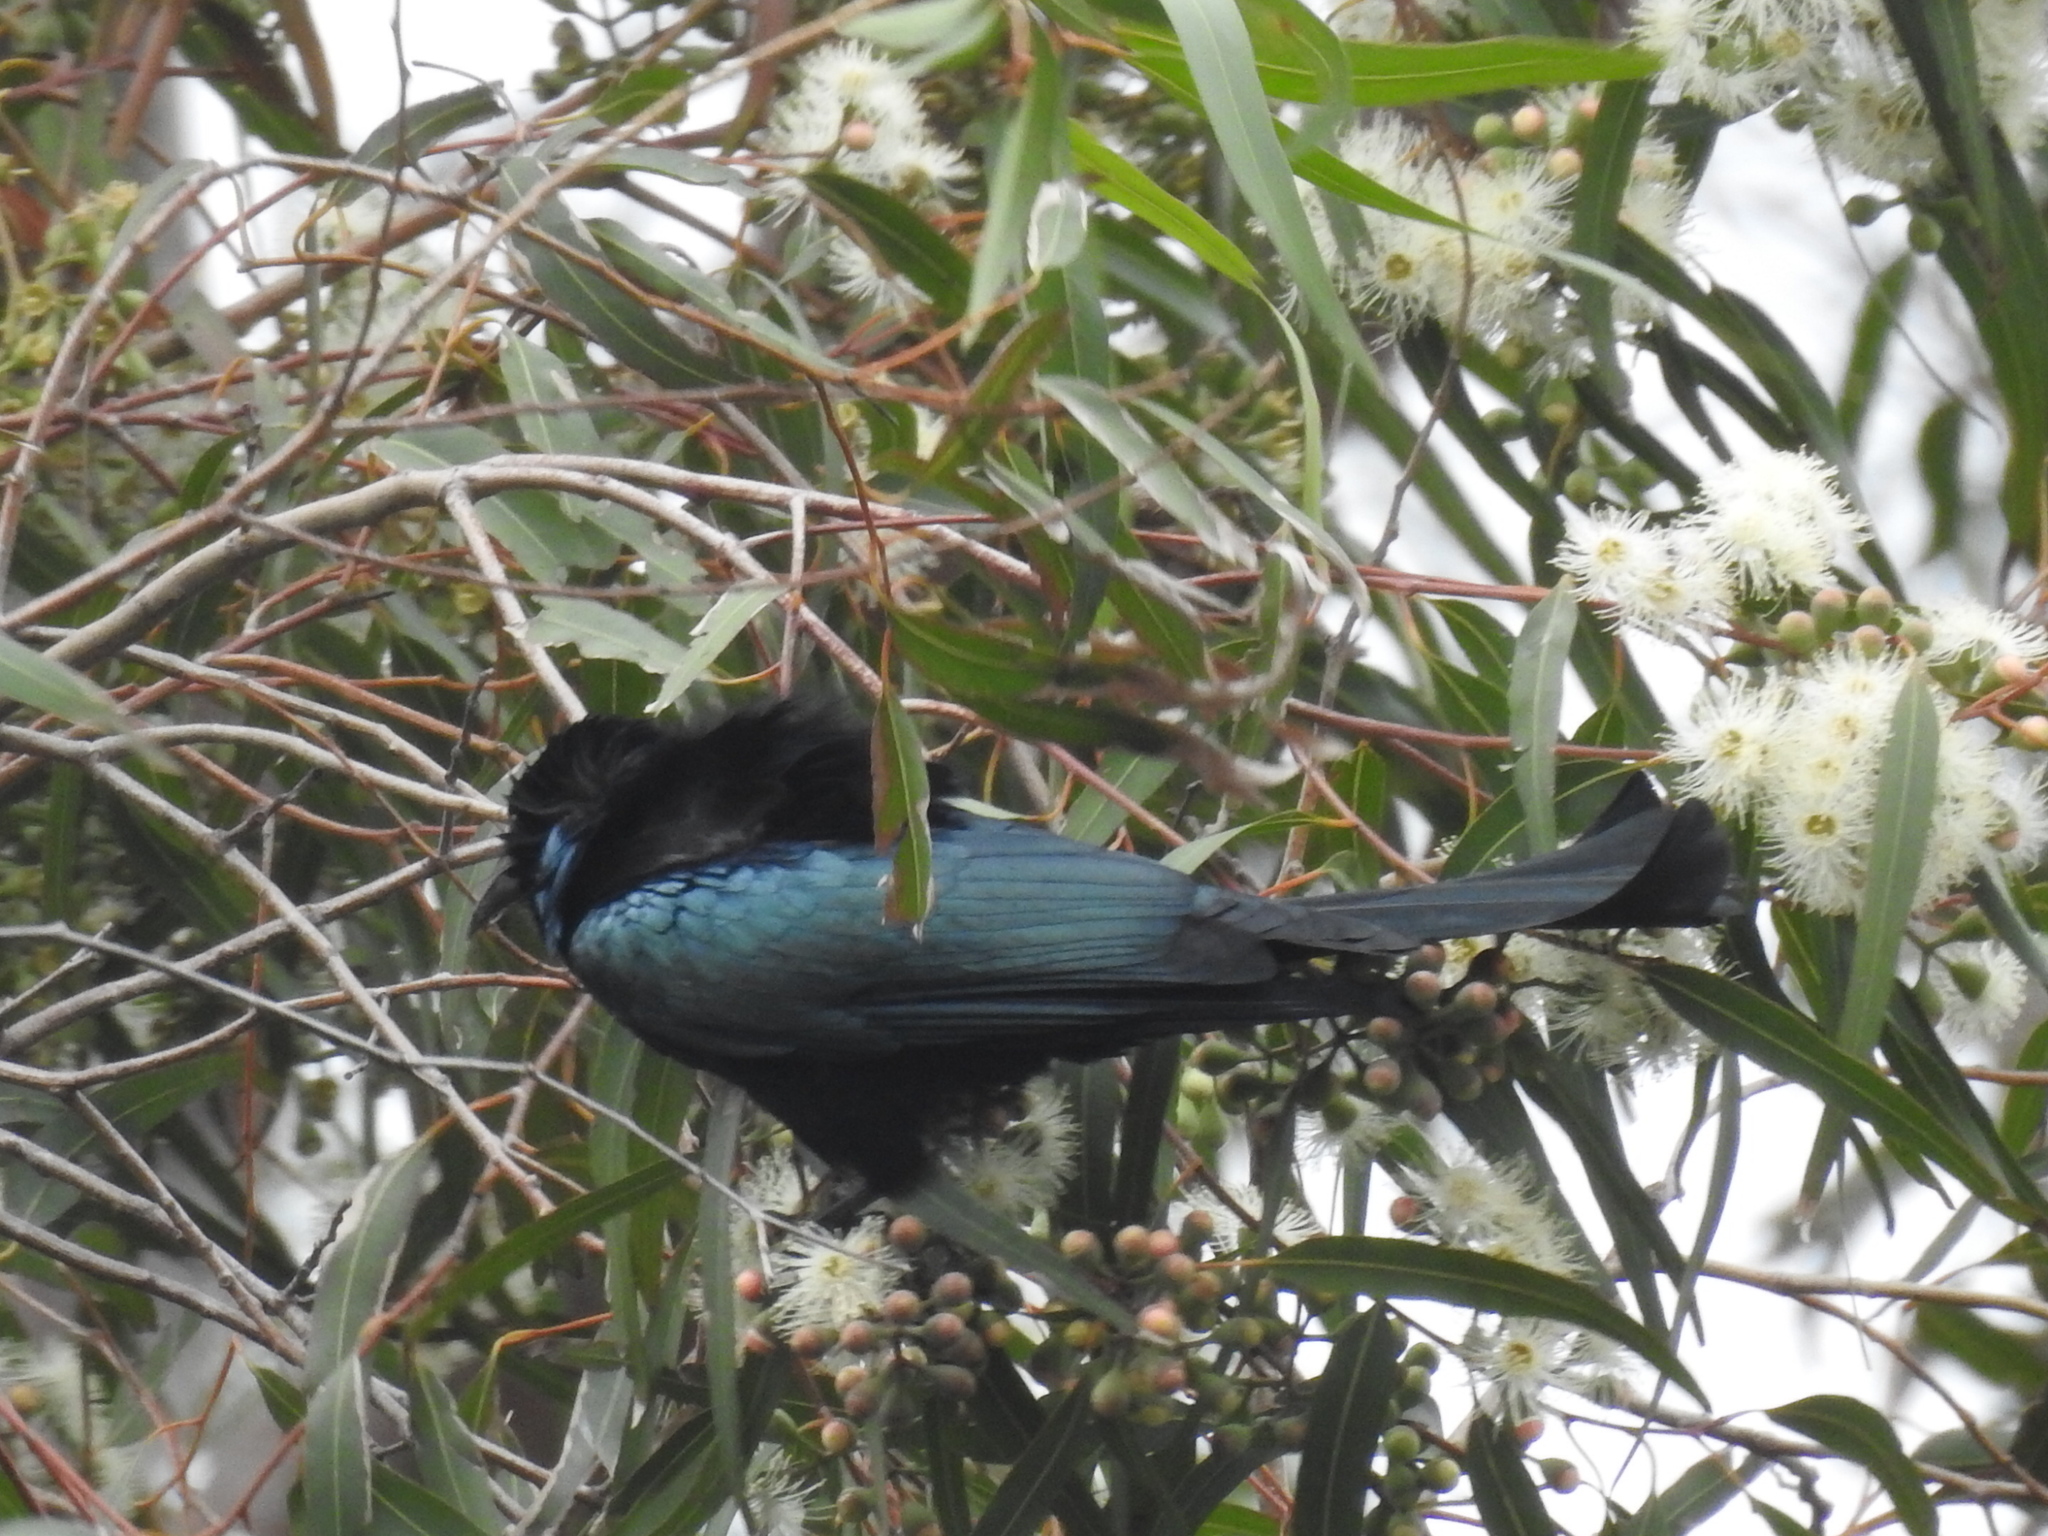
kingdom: Animalia
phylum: Chordata
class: Aves
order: Passeriformes
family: Dicruridae
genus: Dicrurus
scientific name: Dicrurus hottentottus
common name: Hair-crested drongo
